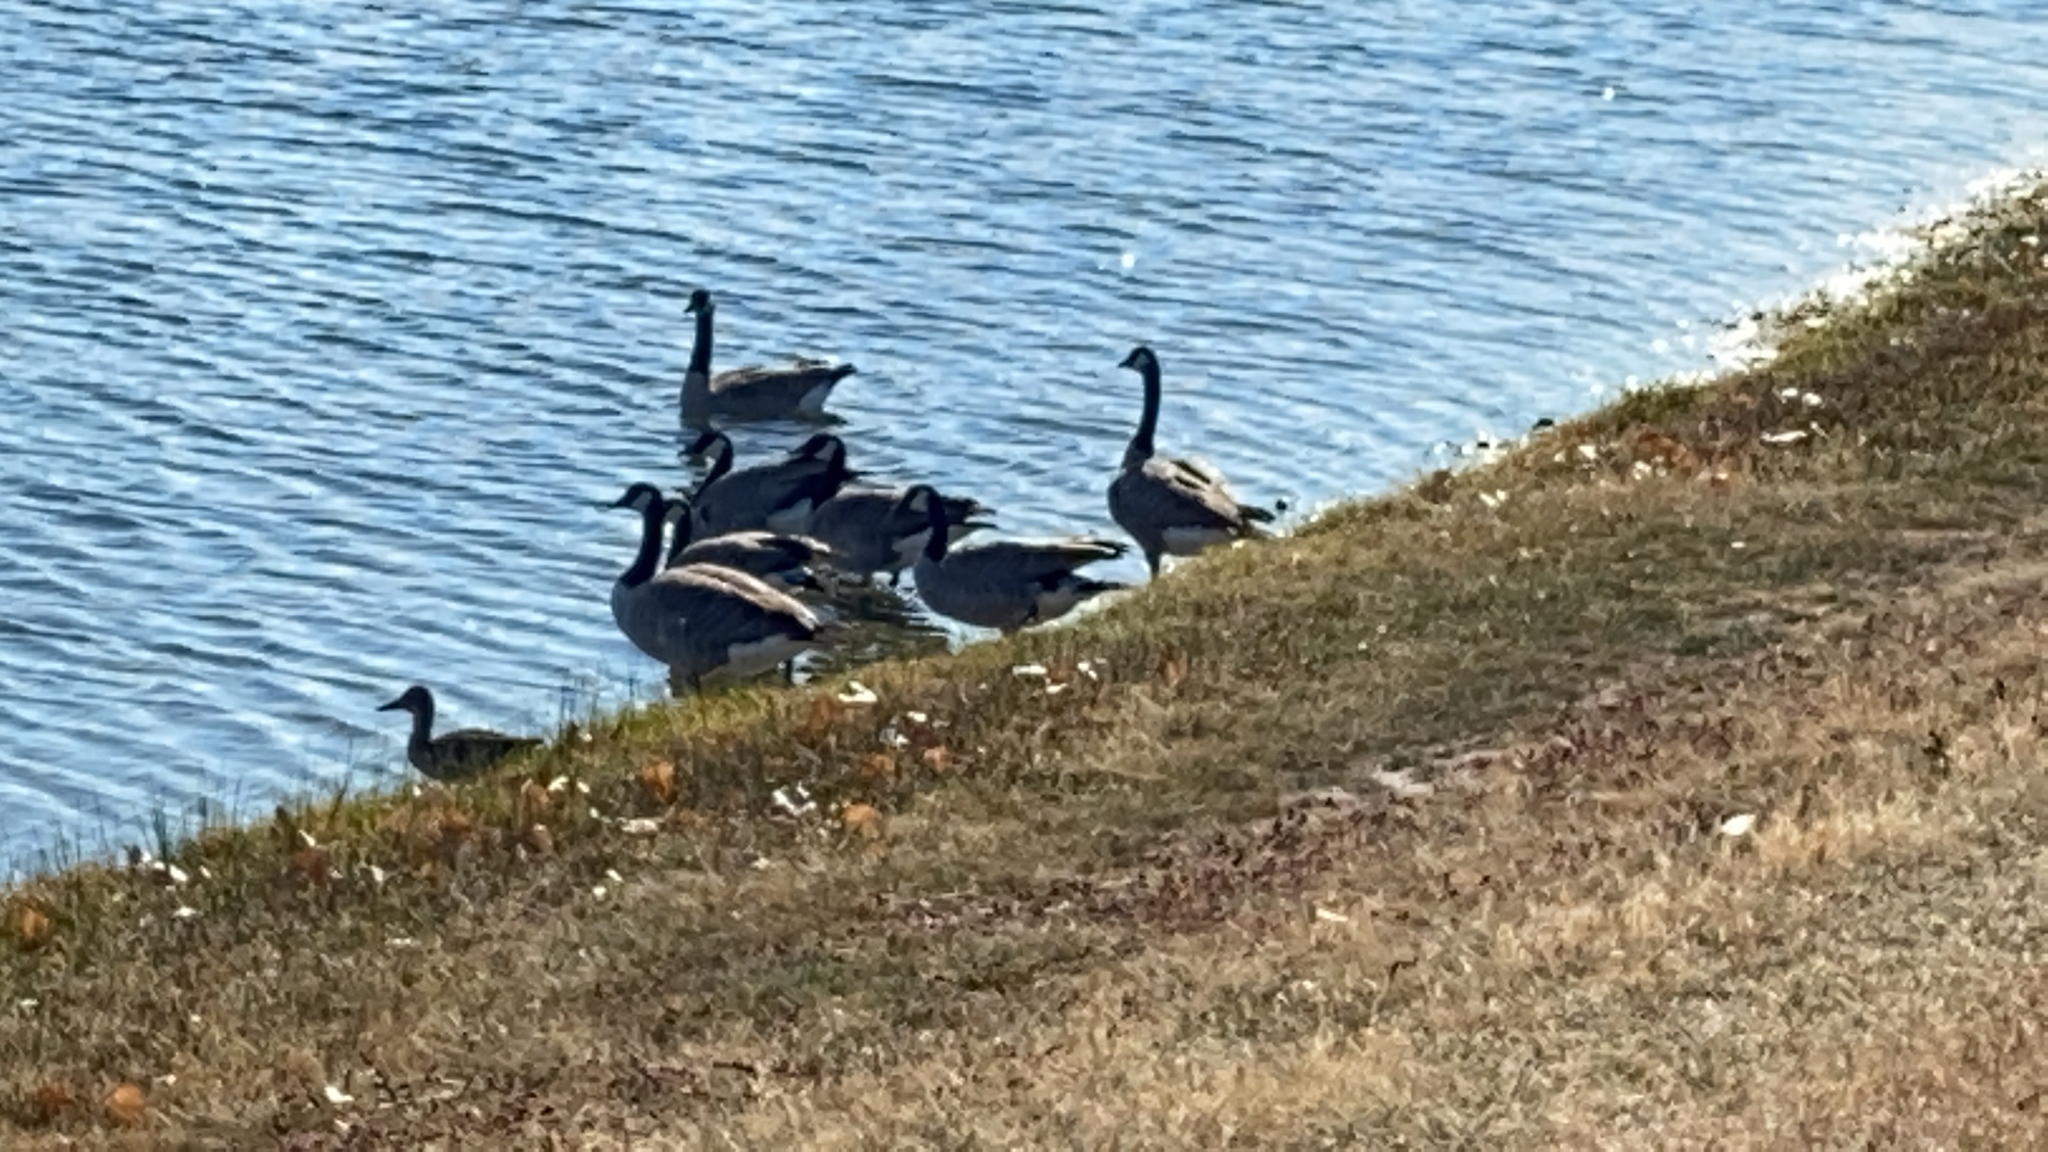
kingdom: Animalia
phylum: Chordata
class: Aves
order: Anseriformes
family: Anatidae
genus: Branta
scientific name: Branta canadensis
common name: Canada goose
